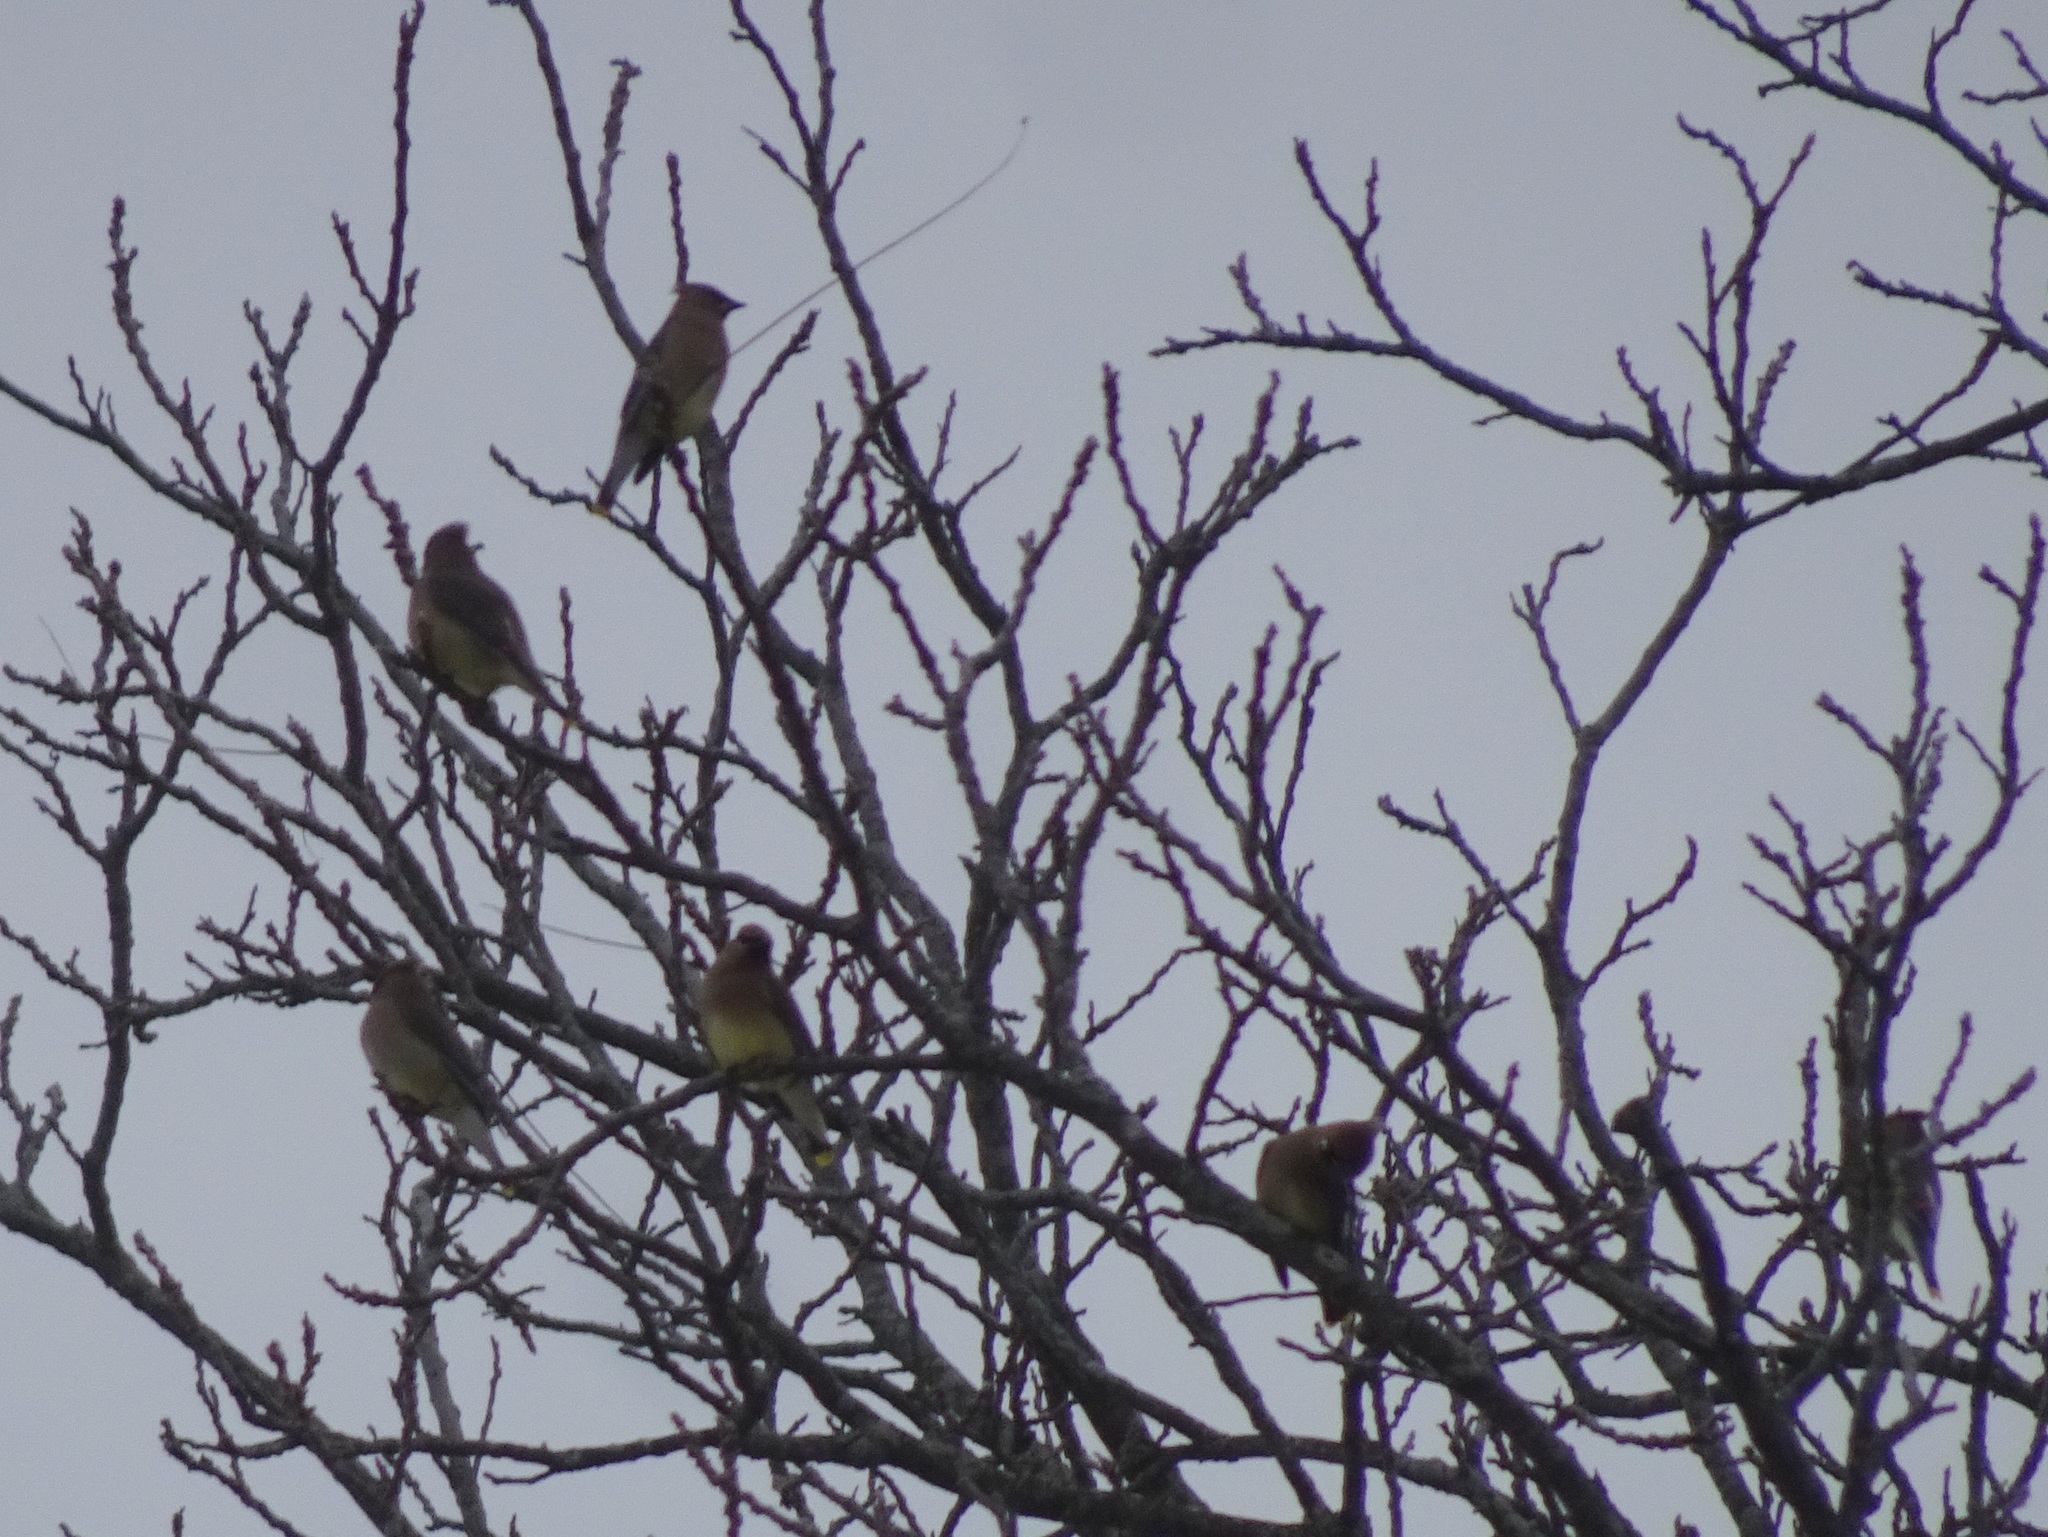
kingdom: Animalia
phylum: Chordata
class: Aves
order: Passeriformes
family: Bombycillidae
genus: Bombycilla
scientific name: Bombycilla cedrorum
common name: Cedar waxwing
